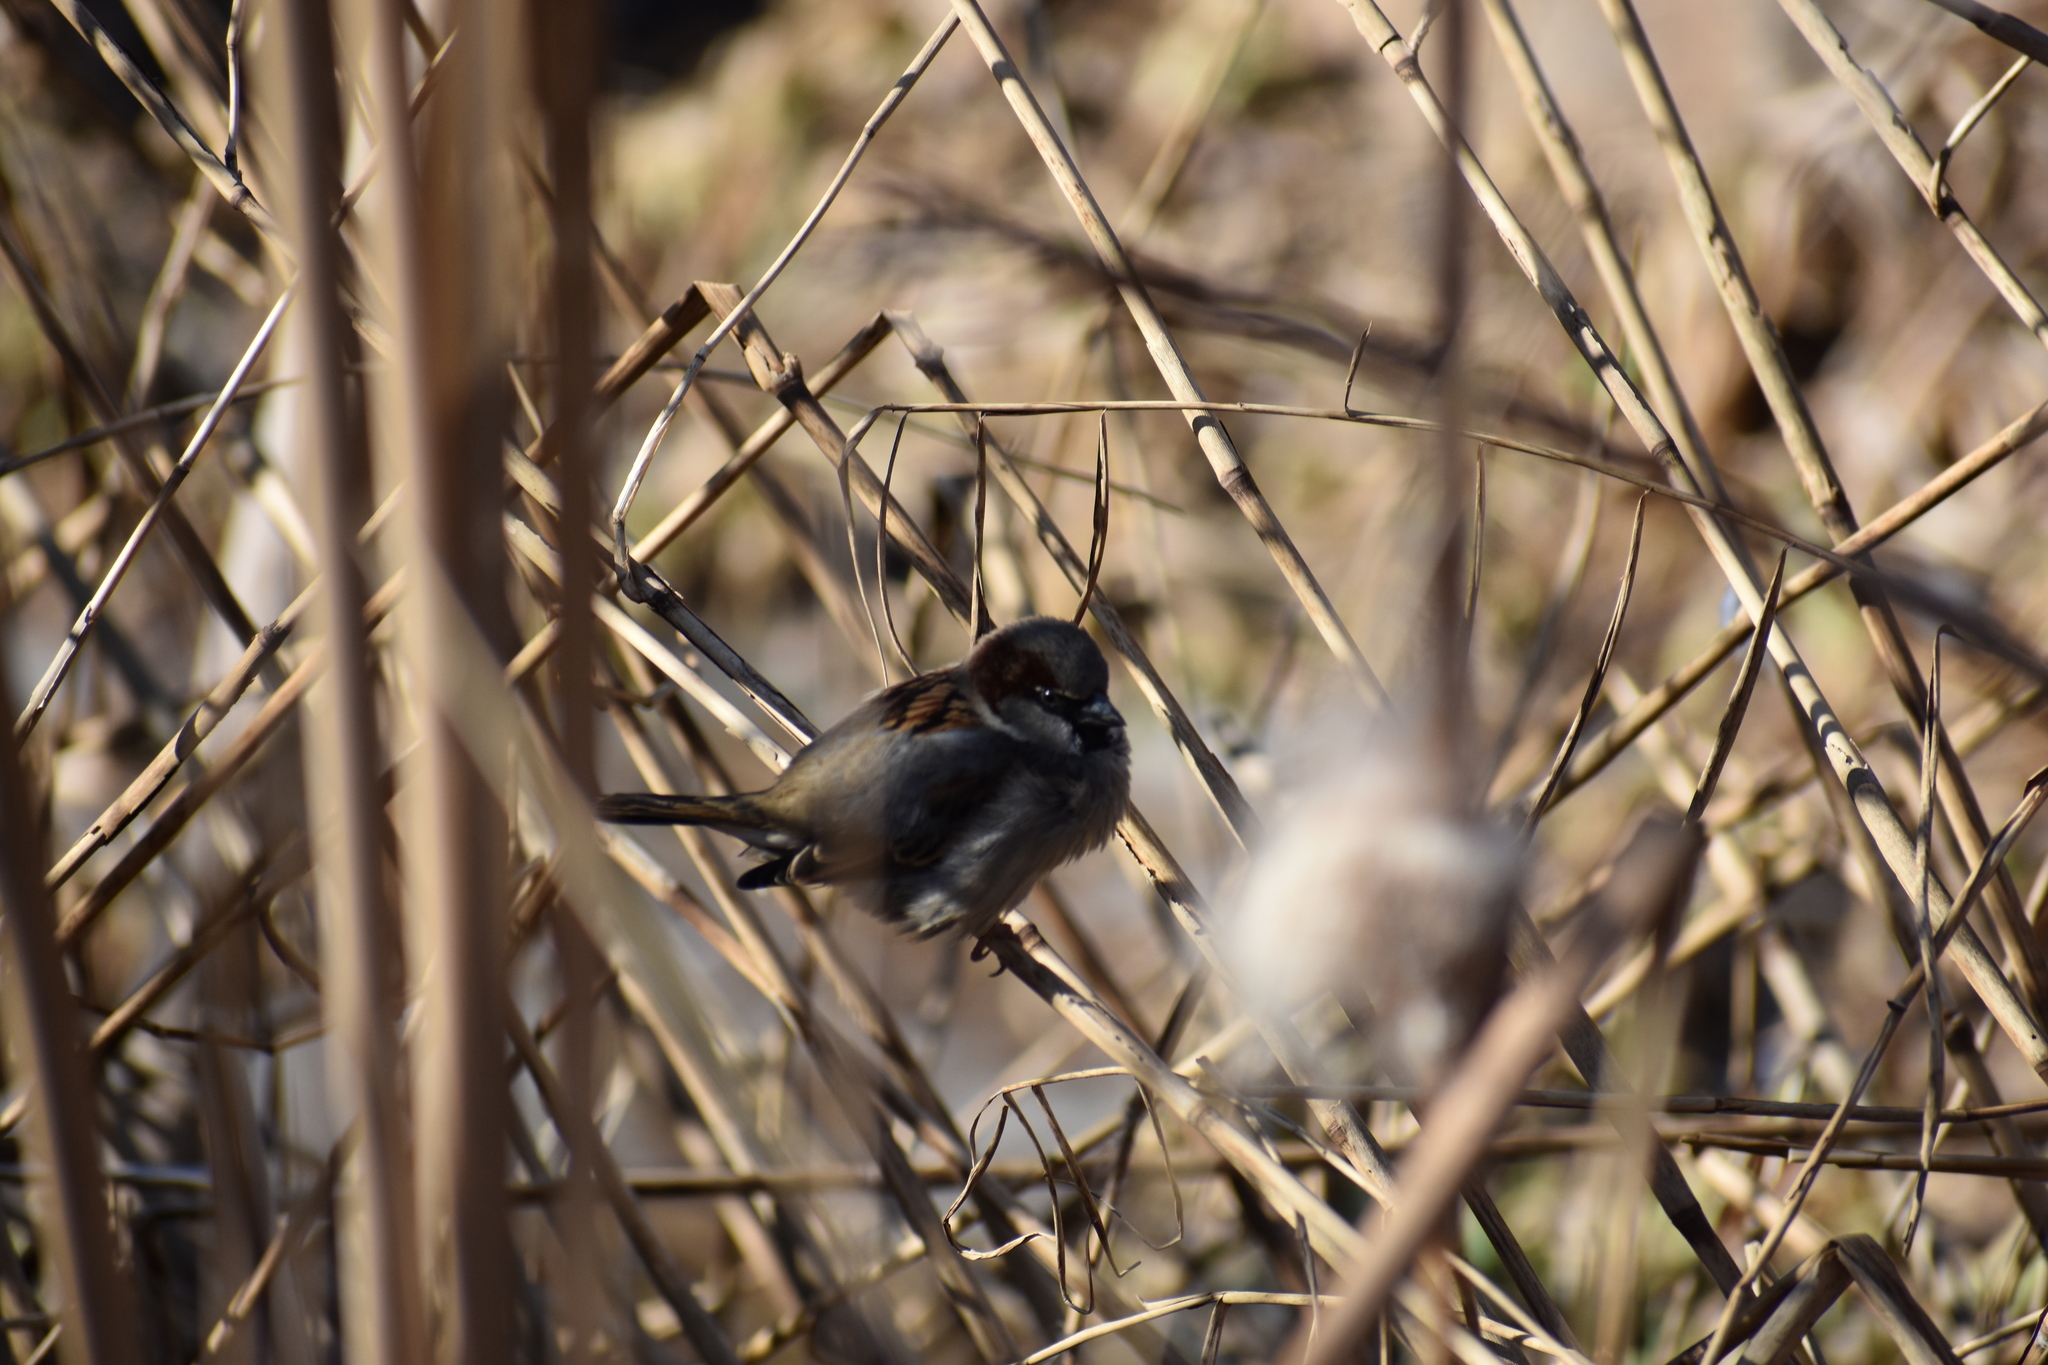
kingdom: Animalia
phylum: Chordata
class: Aves
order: Passeriformes
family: Passeridae
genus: Passer
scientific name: Passer domesticus
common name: House sparrow
